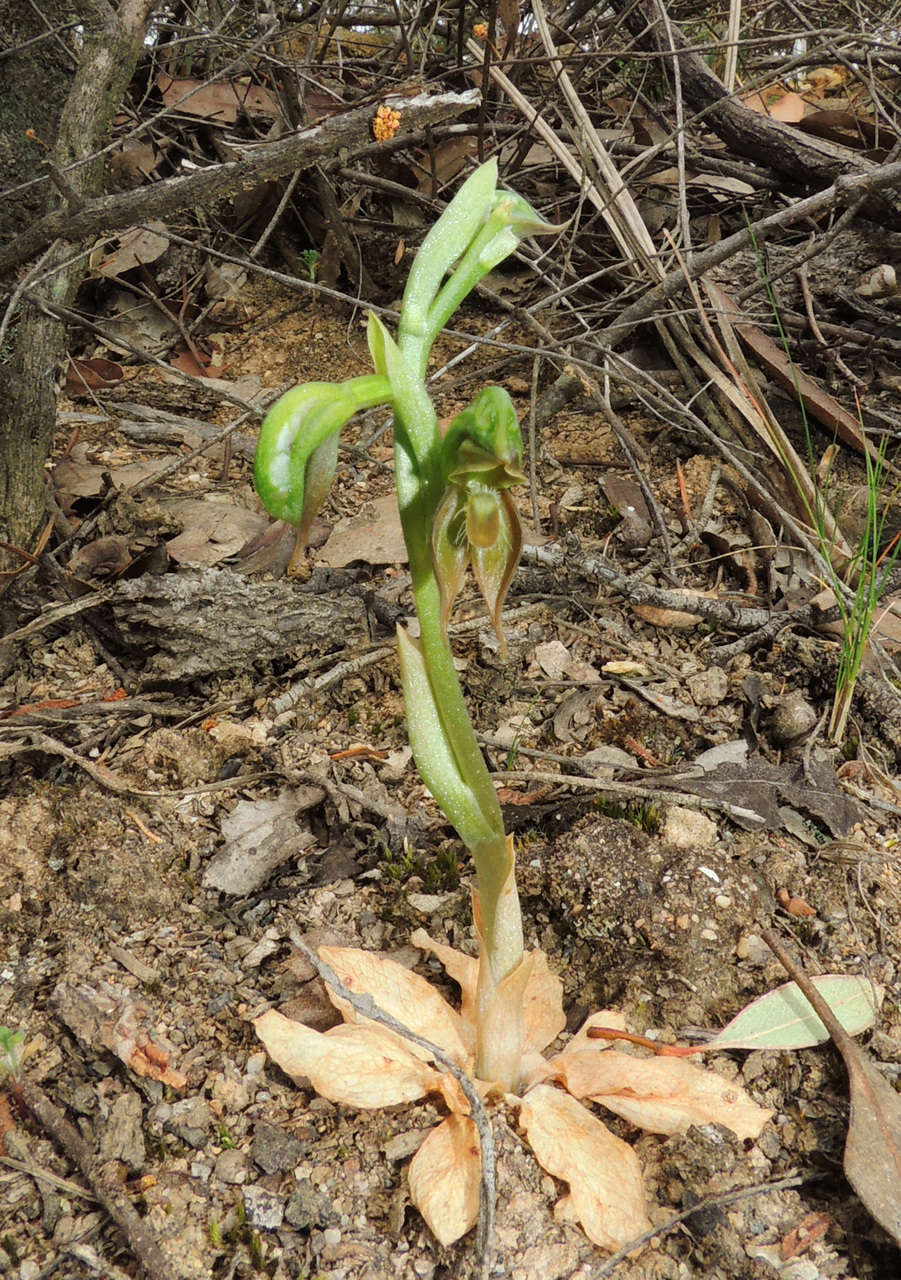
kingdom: Plantae
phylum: Tracheophyta
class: Liliopsida
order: Asparagales
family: Orchidaceae
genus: Pterostylis
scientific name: Pterostylis aciculiformis
